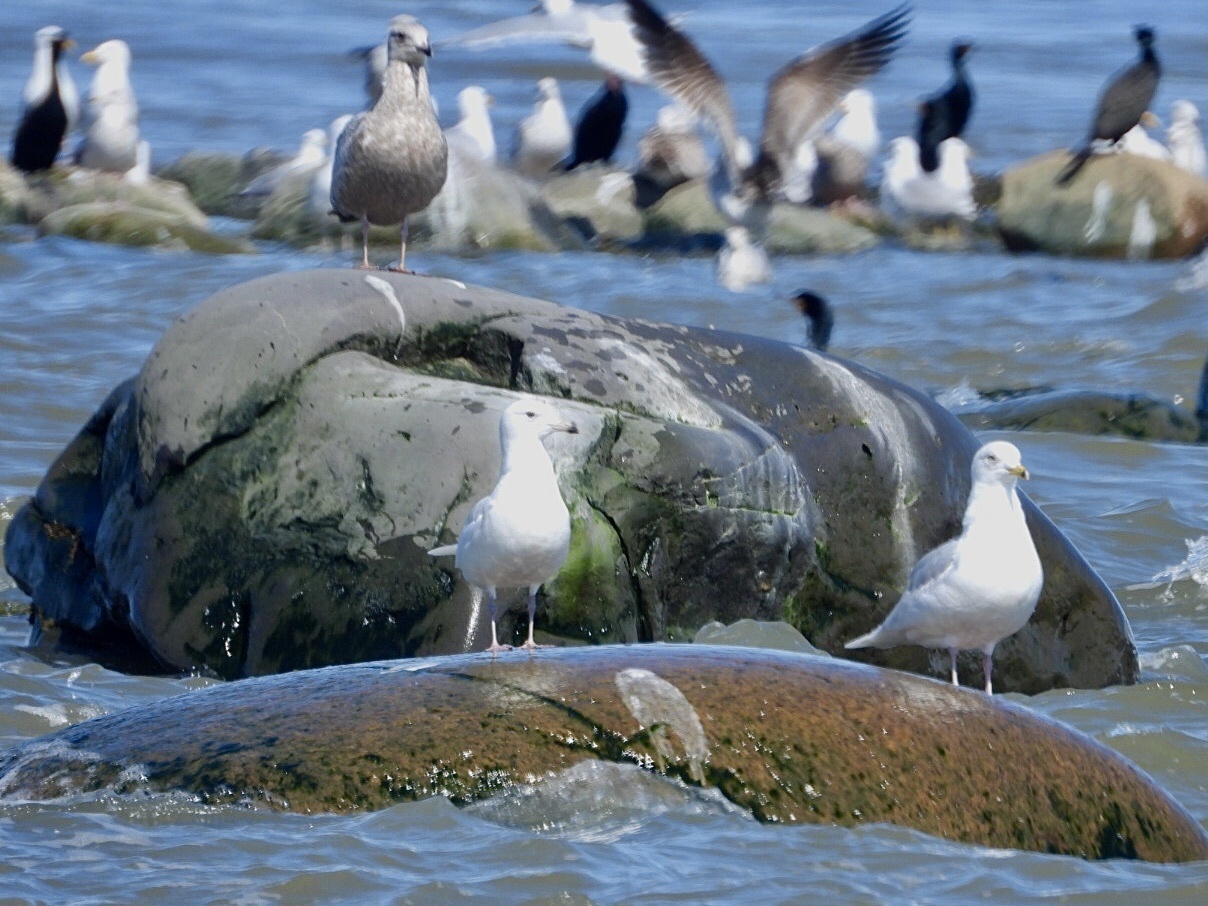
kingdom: Animalia
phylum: Chordata
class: Aves
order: Charadriiformes
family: Laridae
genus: Larus
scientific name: Larus delawarensis
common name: Ring-billed gull
